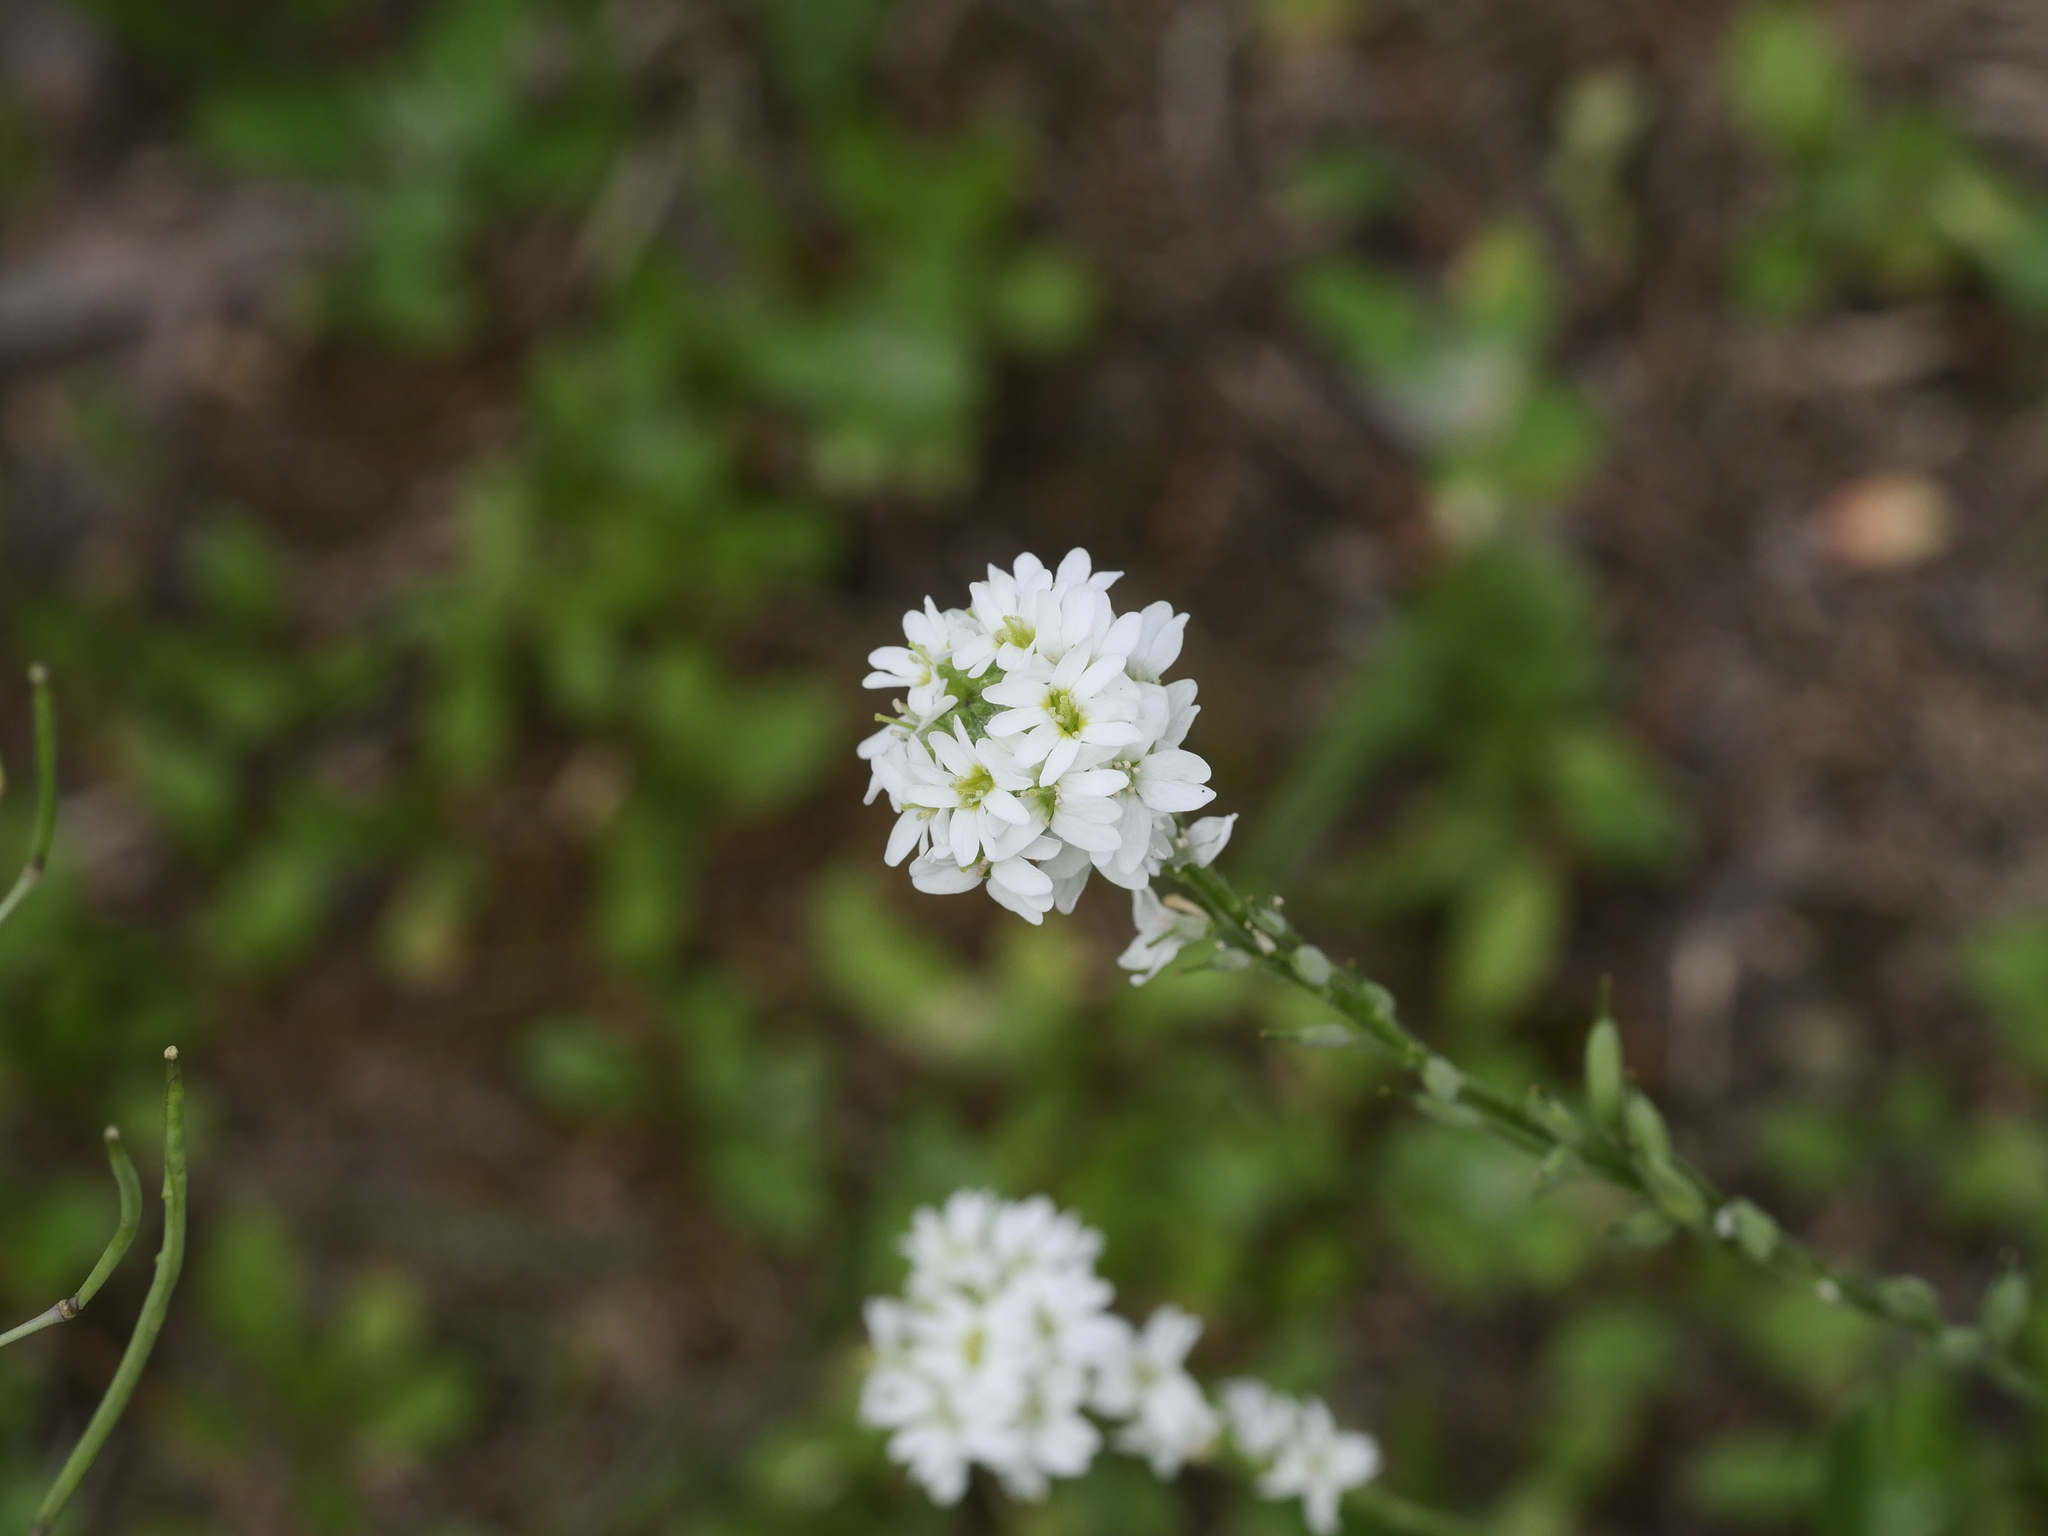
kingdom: Plantae
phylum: Tracheophyta
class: Magnoliopsida
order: Brassicales
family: Brassicaceae
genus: Berteroa
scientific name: Berteroa incana
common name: Hoary alison
